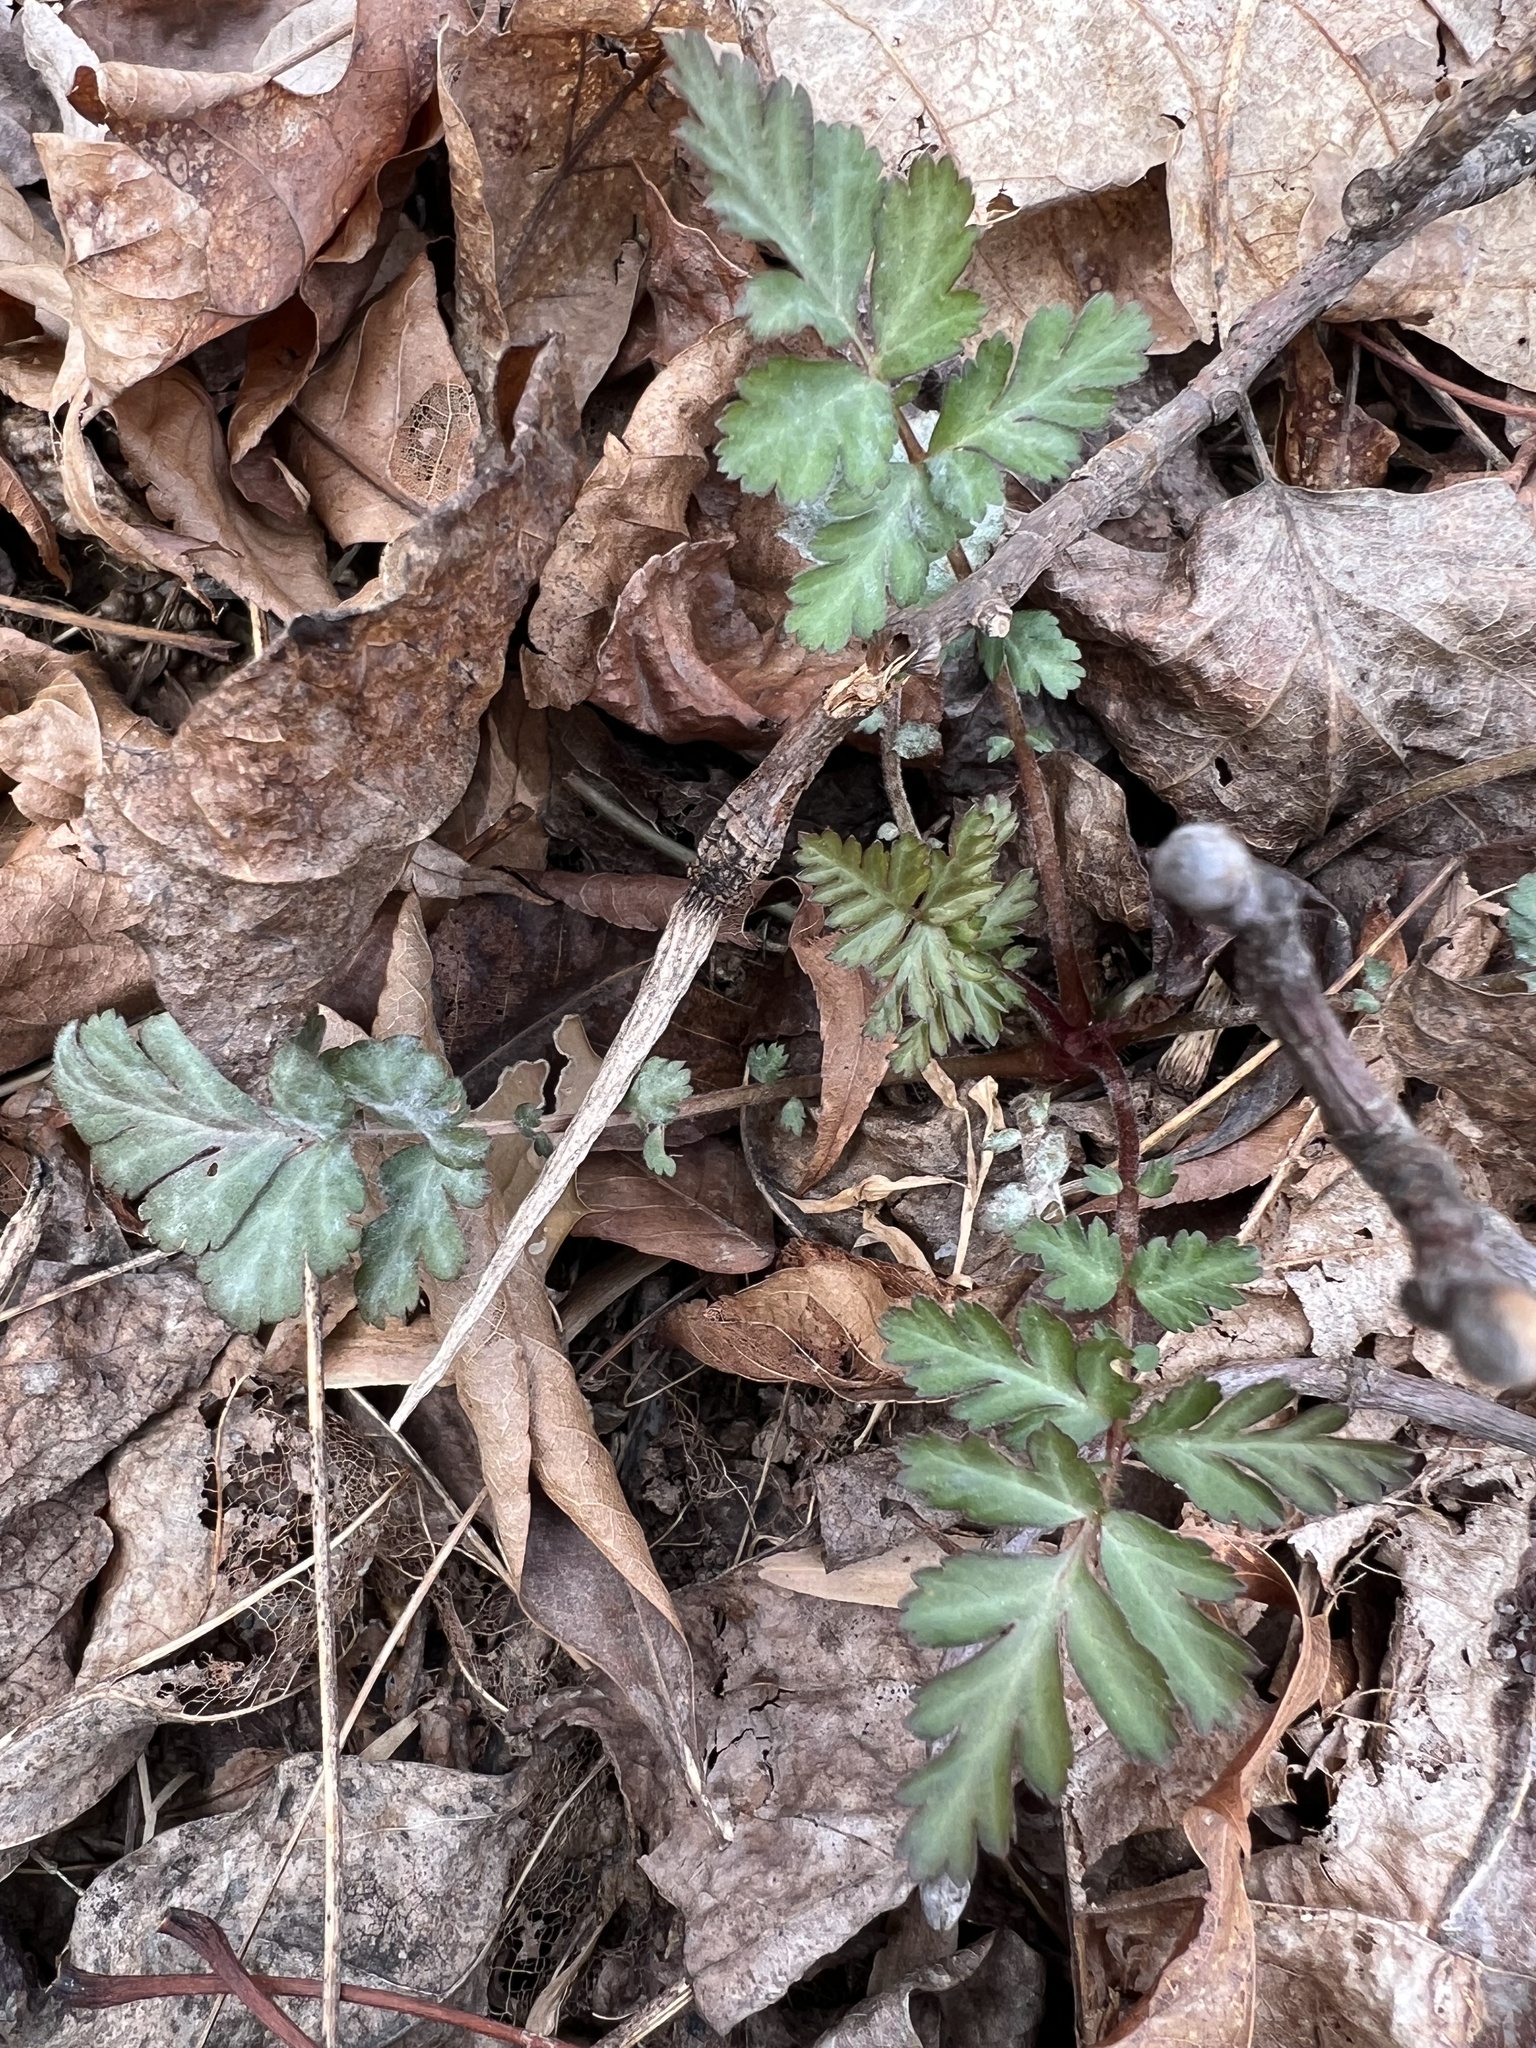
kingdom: Plantae
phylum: Tracheophyta
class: Magnoliopsida
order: Rosales
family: Rosaceae
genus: Geum
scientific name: Geum canadense
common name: White avens
